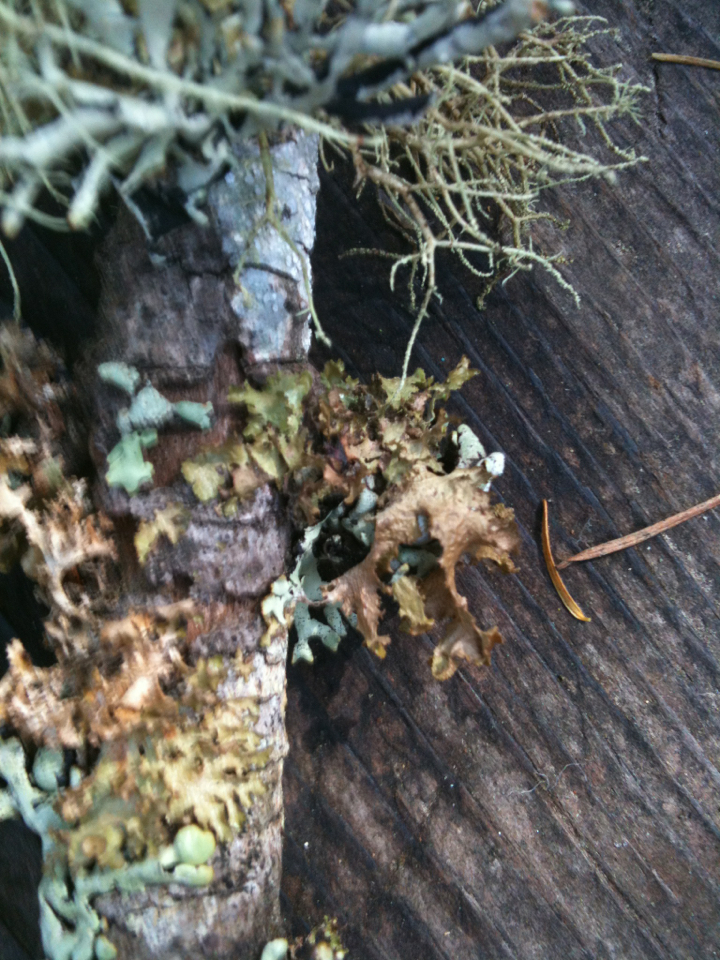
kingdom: Fungi
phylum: Ascomycota
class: Lecanoromycetes
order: Lecanorales
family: Parmeliaceae
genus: Nephromopsis
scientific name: Nephromopsis orbata
